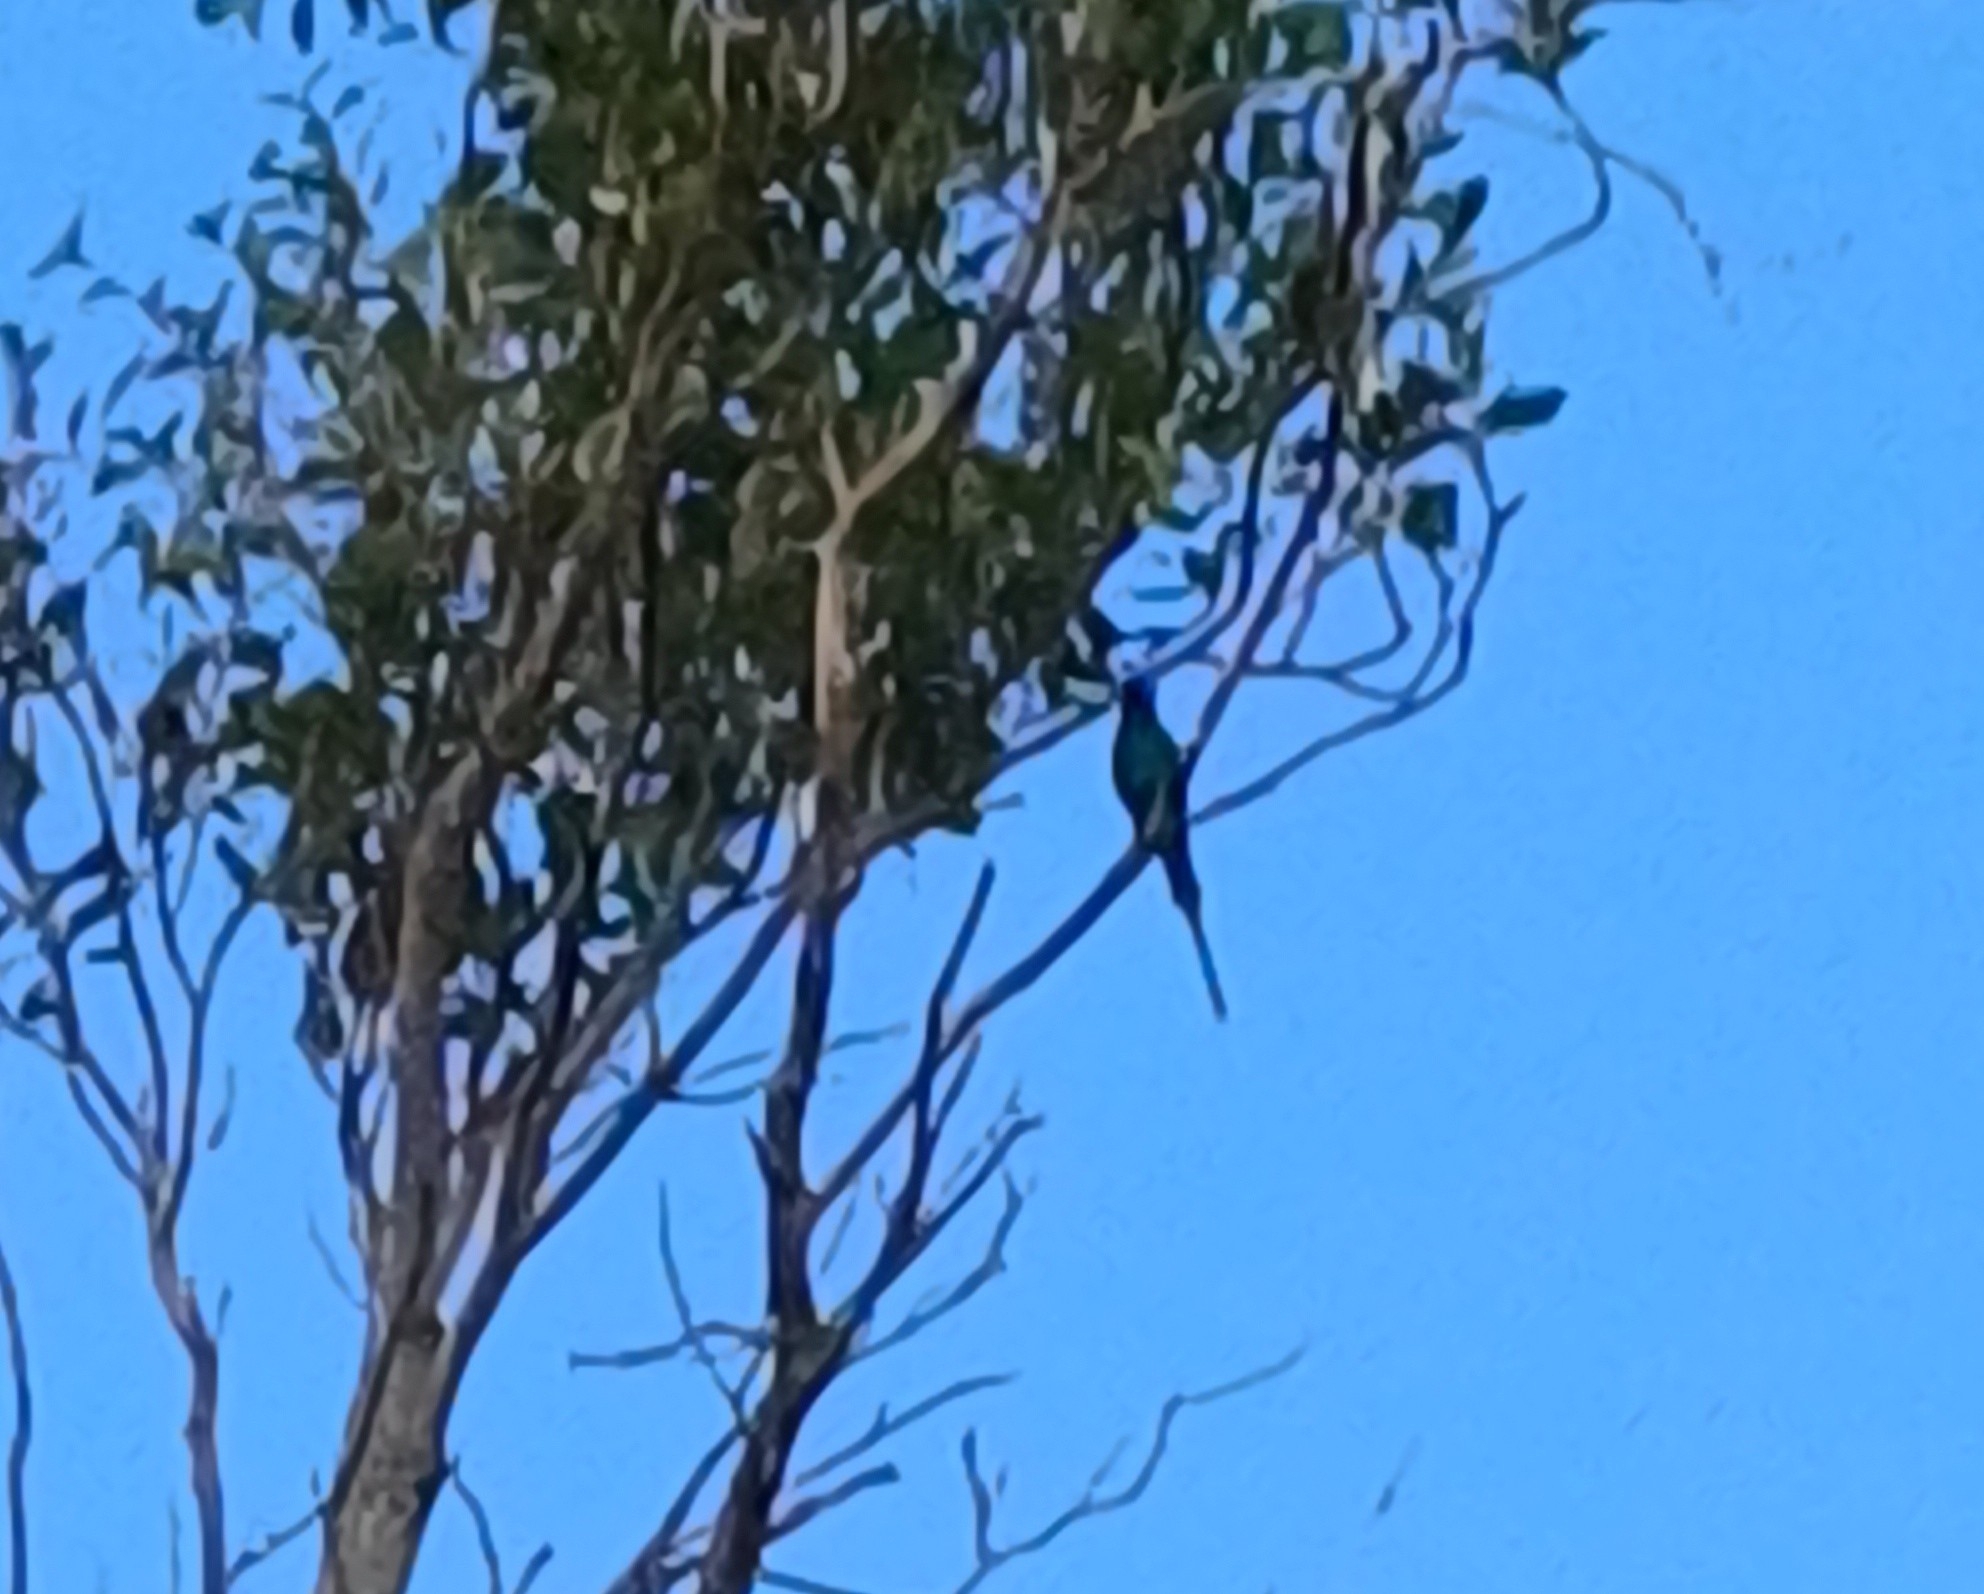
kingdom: Animalia
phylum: Chordata
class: Aves
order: Passeriformes
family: Nectariniidae
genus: Nectarinia
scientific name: Nectarinia famosa
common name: Malachite sunbird
